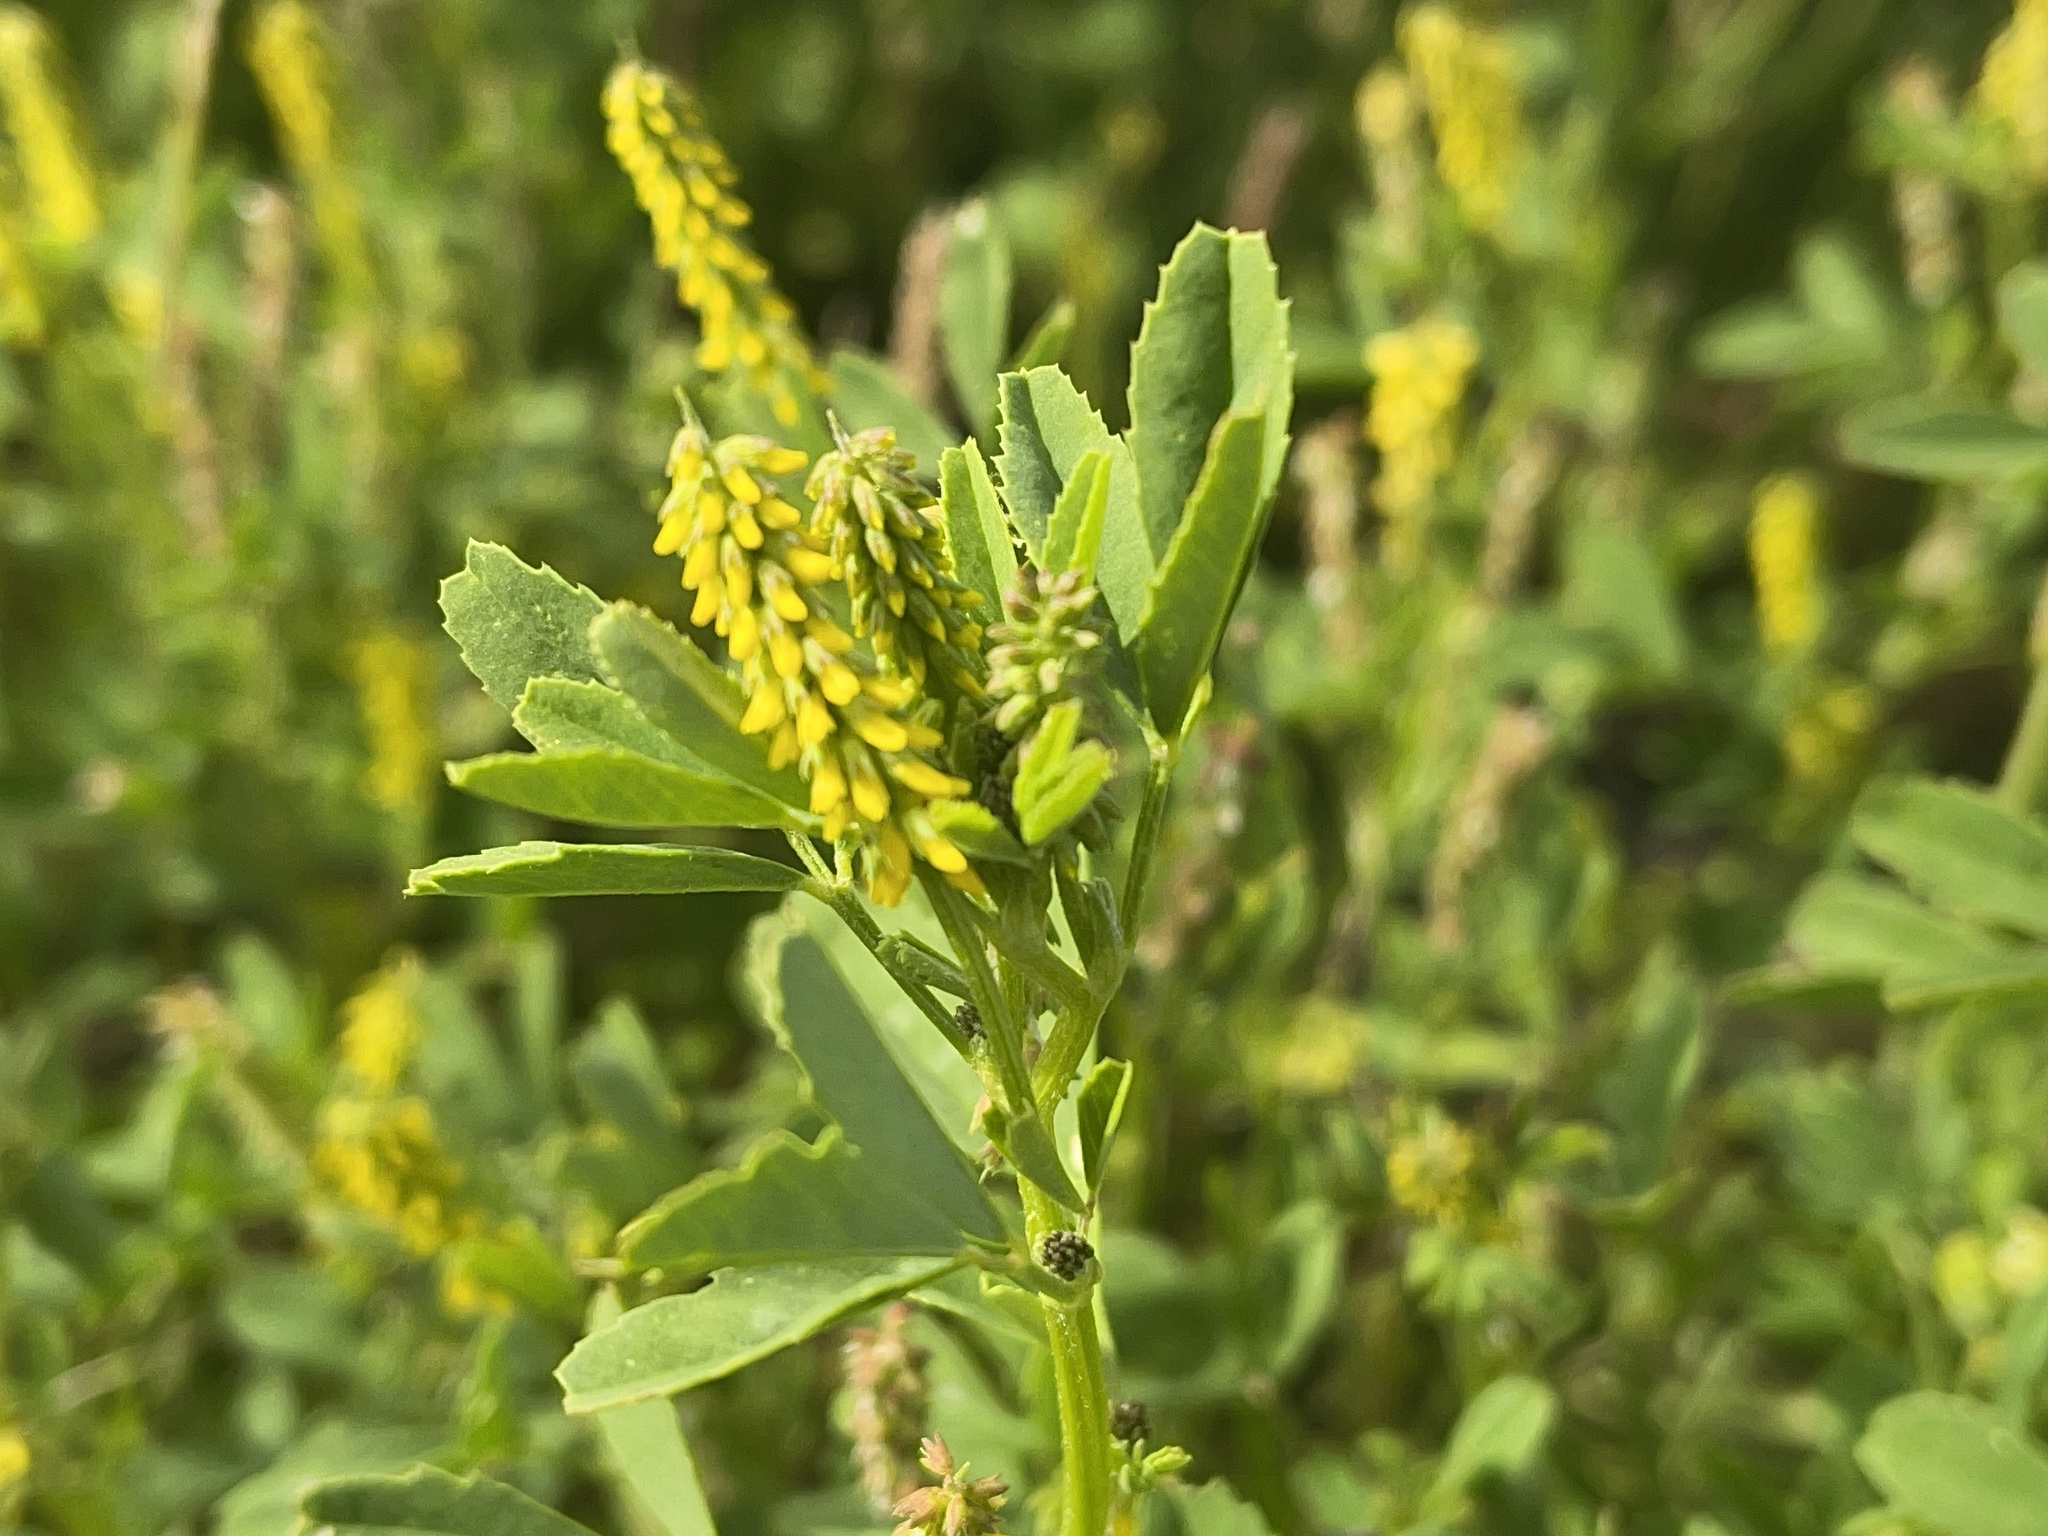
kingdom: Plantae
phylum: Tracheophyta
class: Magnoliopsida
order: Fabales
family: Fabaceae
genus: Melilotus
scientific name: Melilotus indicus
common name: Small melilot
